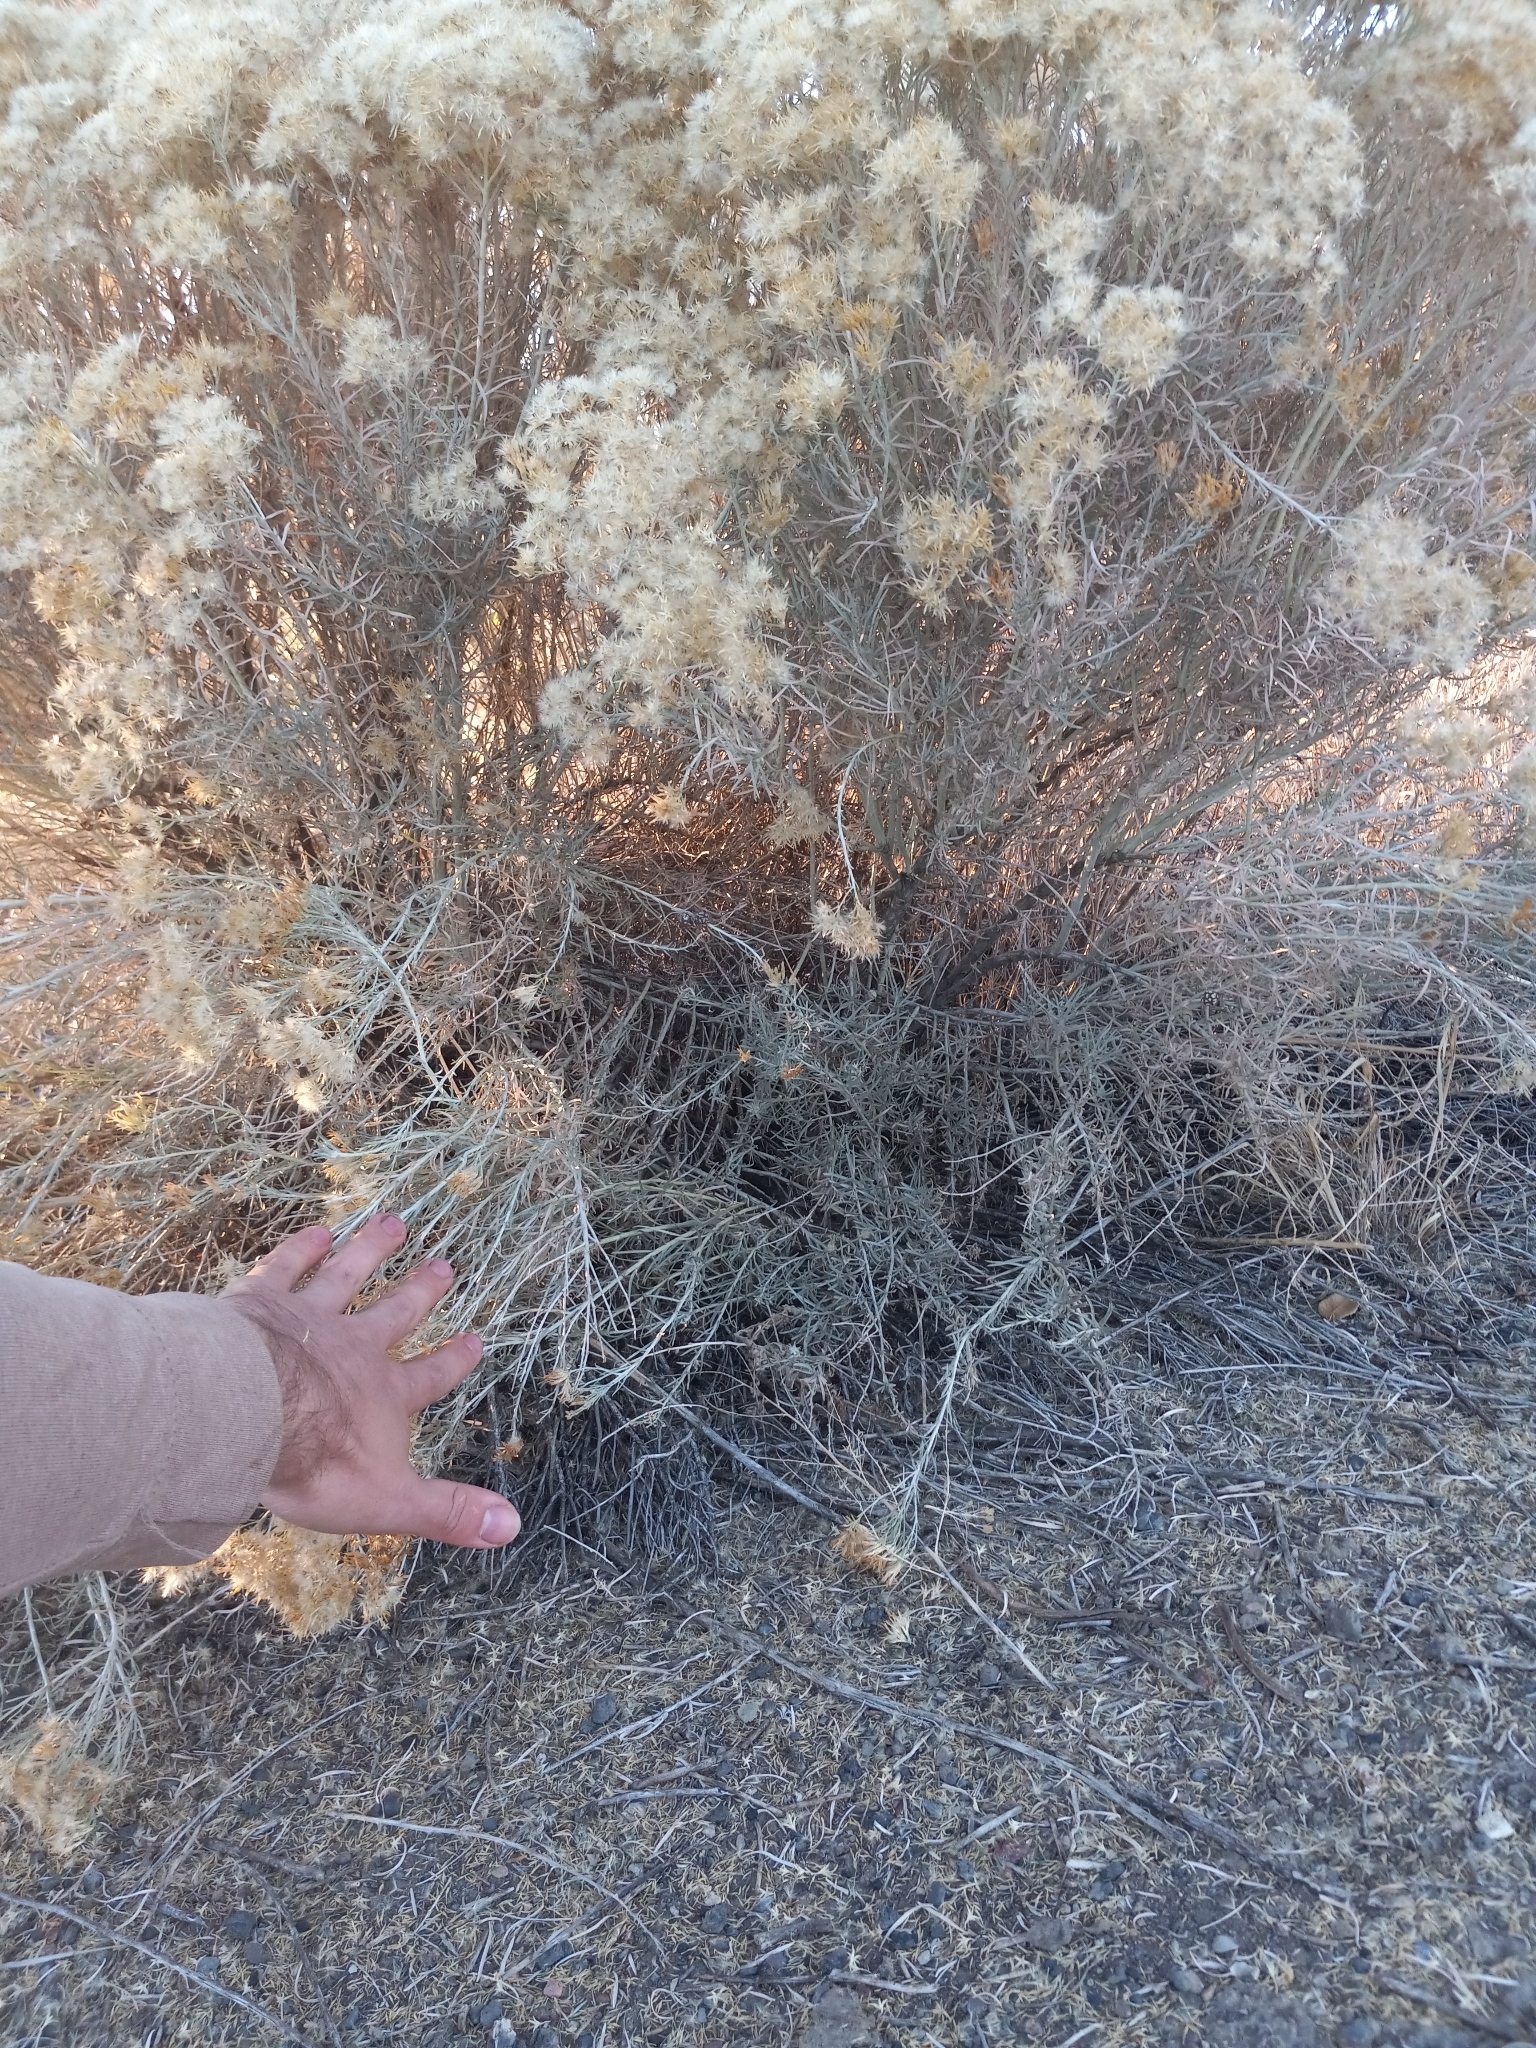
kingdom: Plantae
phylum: Tracheophyta
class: Magnoliopsida
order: Asterales
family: Asteraceae
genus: Ericameria
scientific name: Ericameria nauseosa
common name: Rubber rabbitbrush
